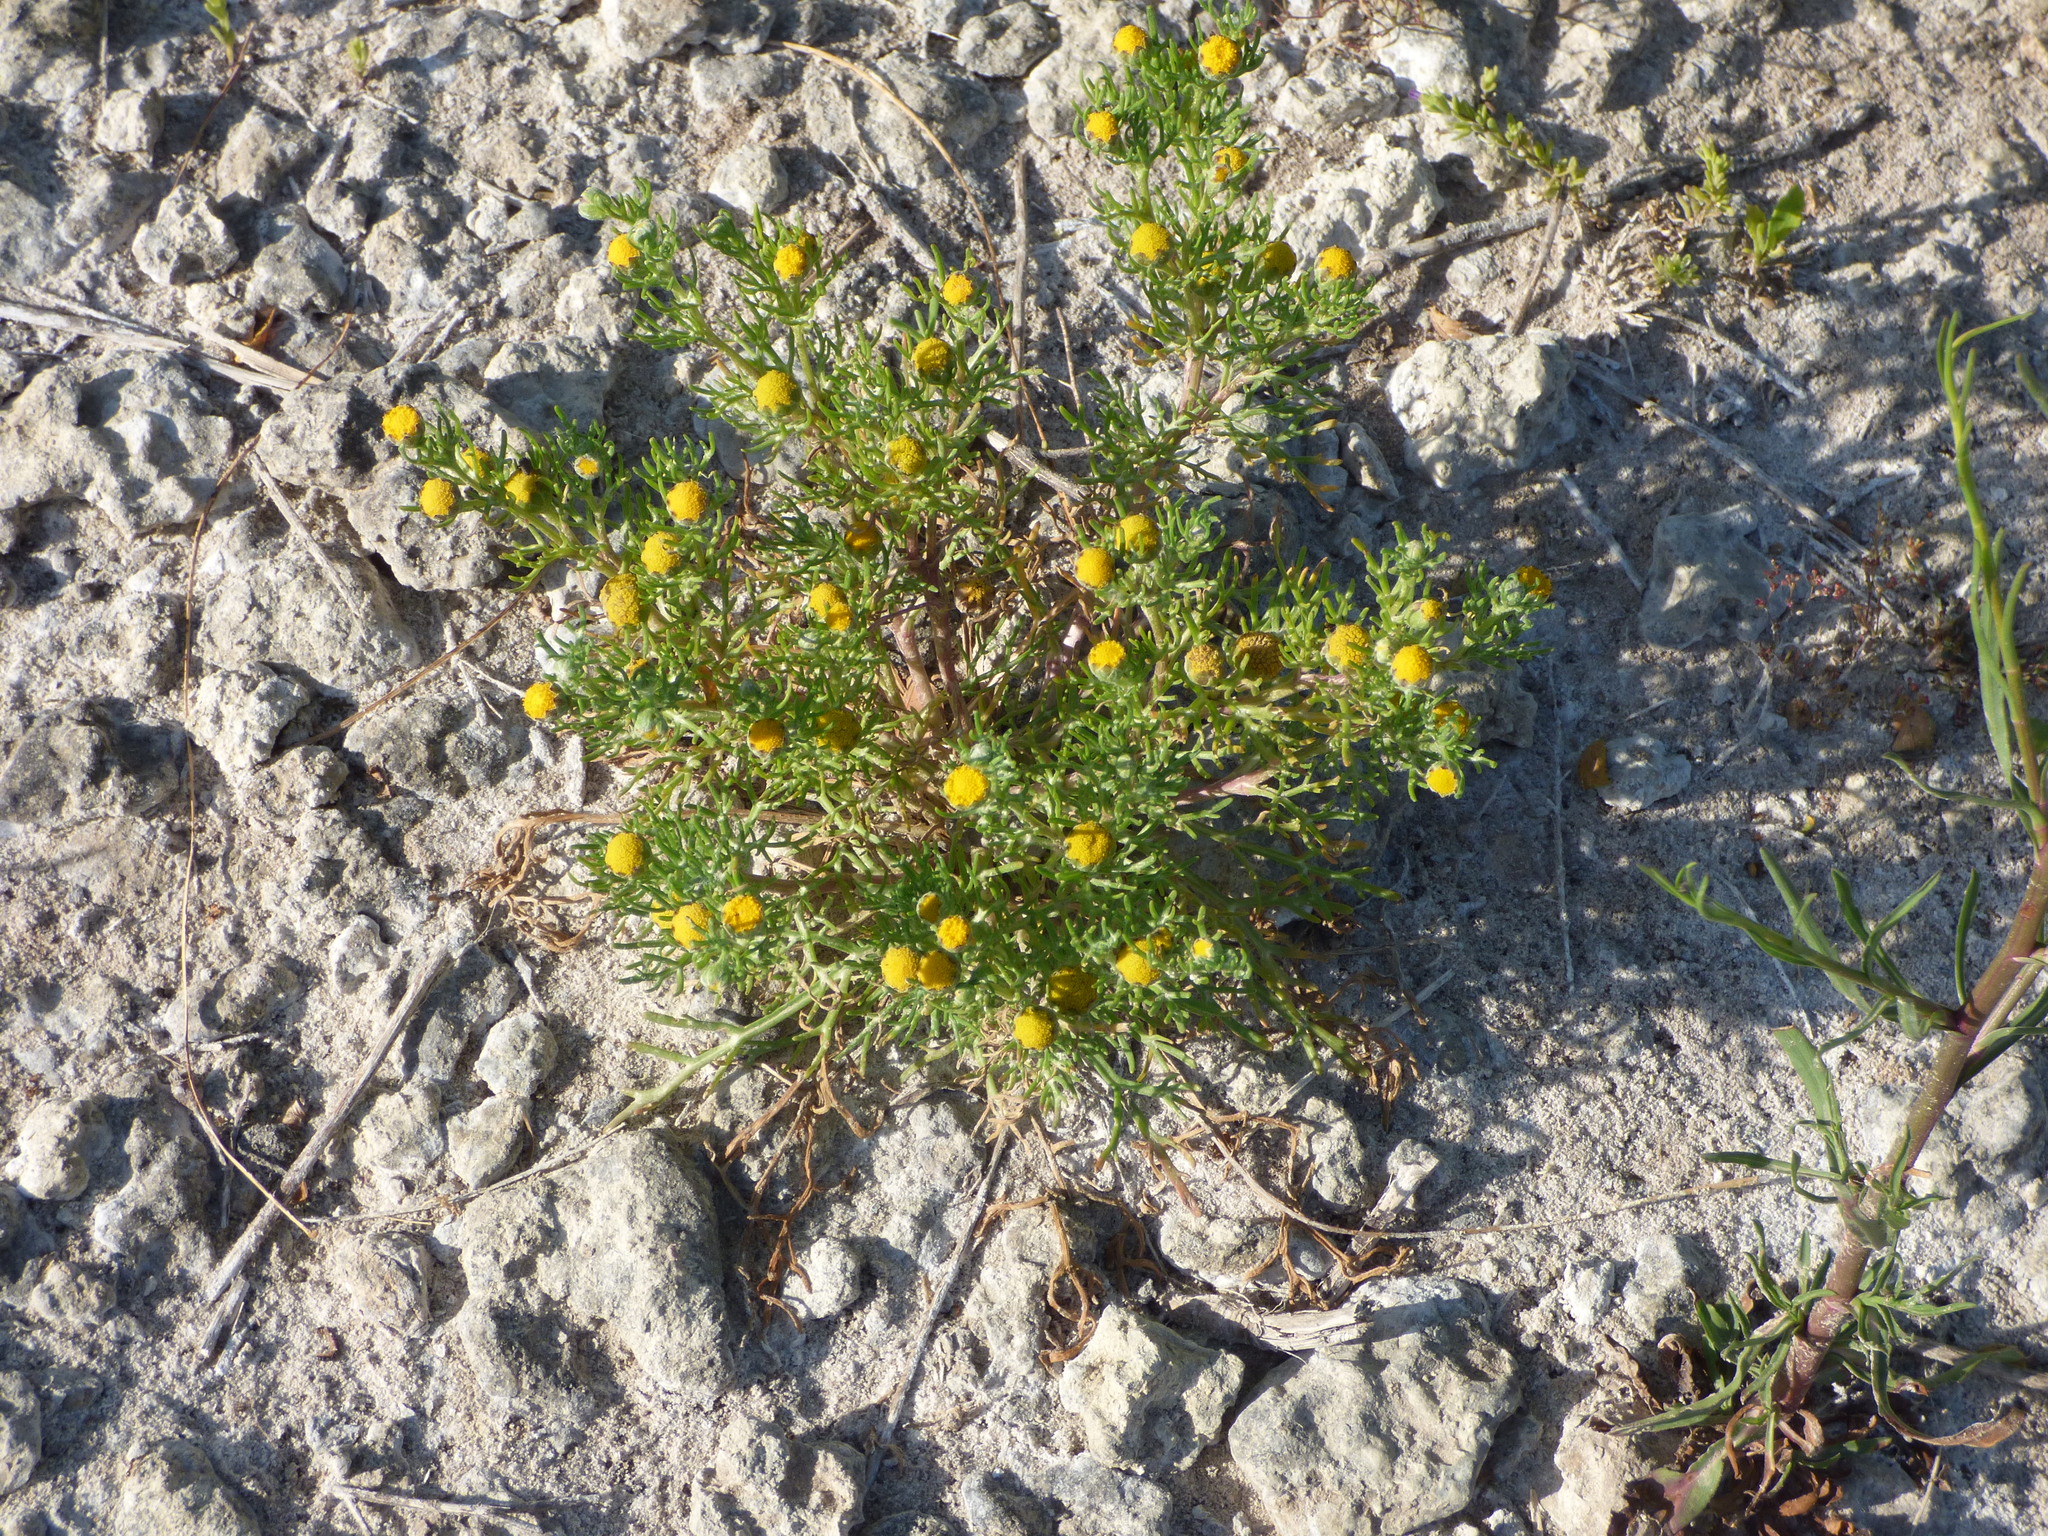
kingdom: Plantae
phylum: Tracheophyta
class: Magnoliopsida
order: Asterales
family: Asteraceae
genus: Hymenoxys
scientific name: Hymenoxys anthemoides
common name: South american rubberweed
